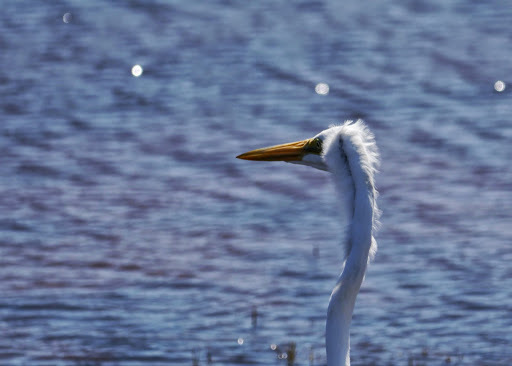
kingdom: Animalia
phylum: Chordata
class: Aves
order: Pelecaniformes
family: Ardeidae
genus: Ardea
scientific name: Ardea alba
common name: Great egret
